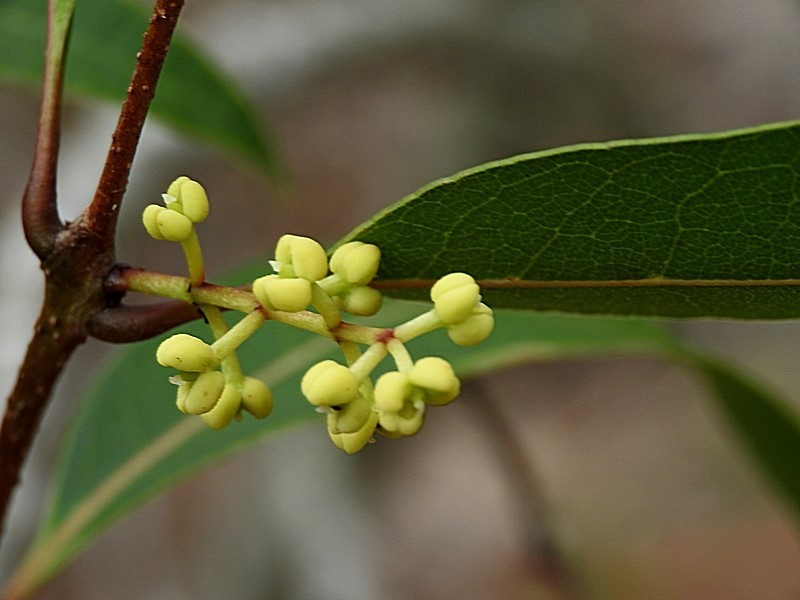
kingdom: Plantae
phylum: Tracheophyta
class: Magnoliopsida
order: Lamiales
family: Oleaceae
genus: Notelaea
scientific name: Notelaea venosa
